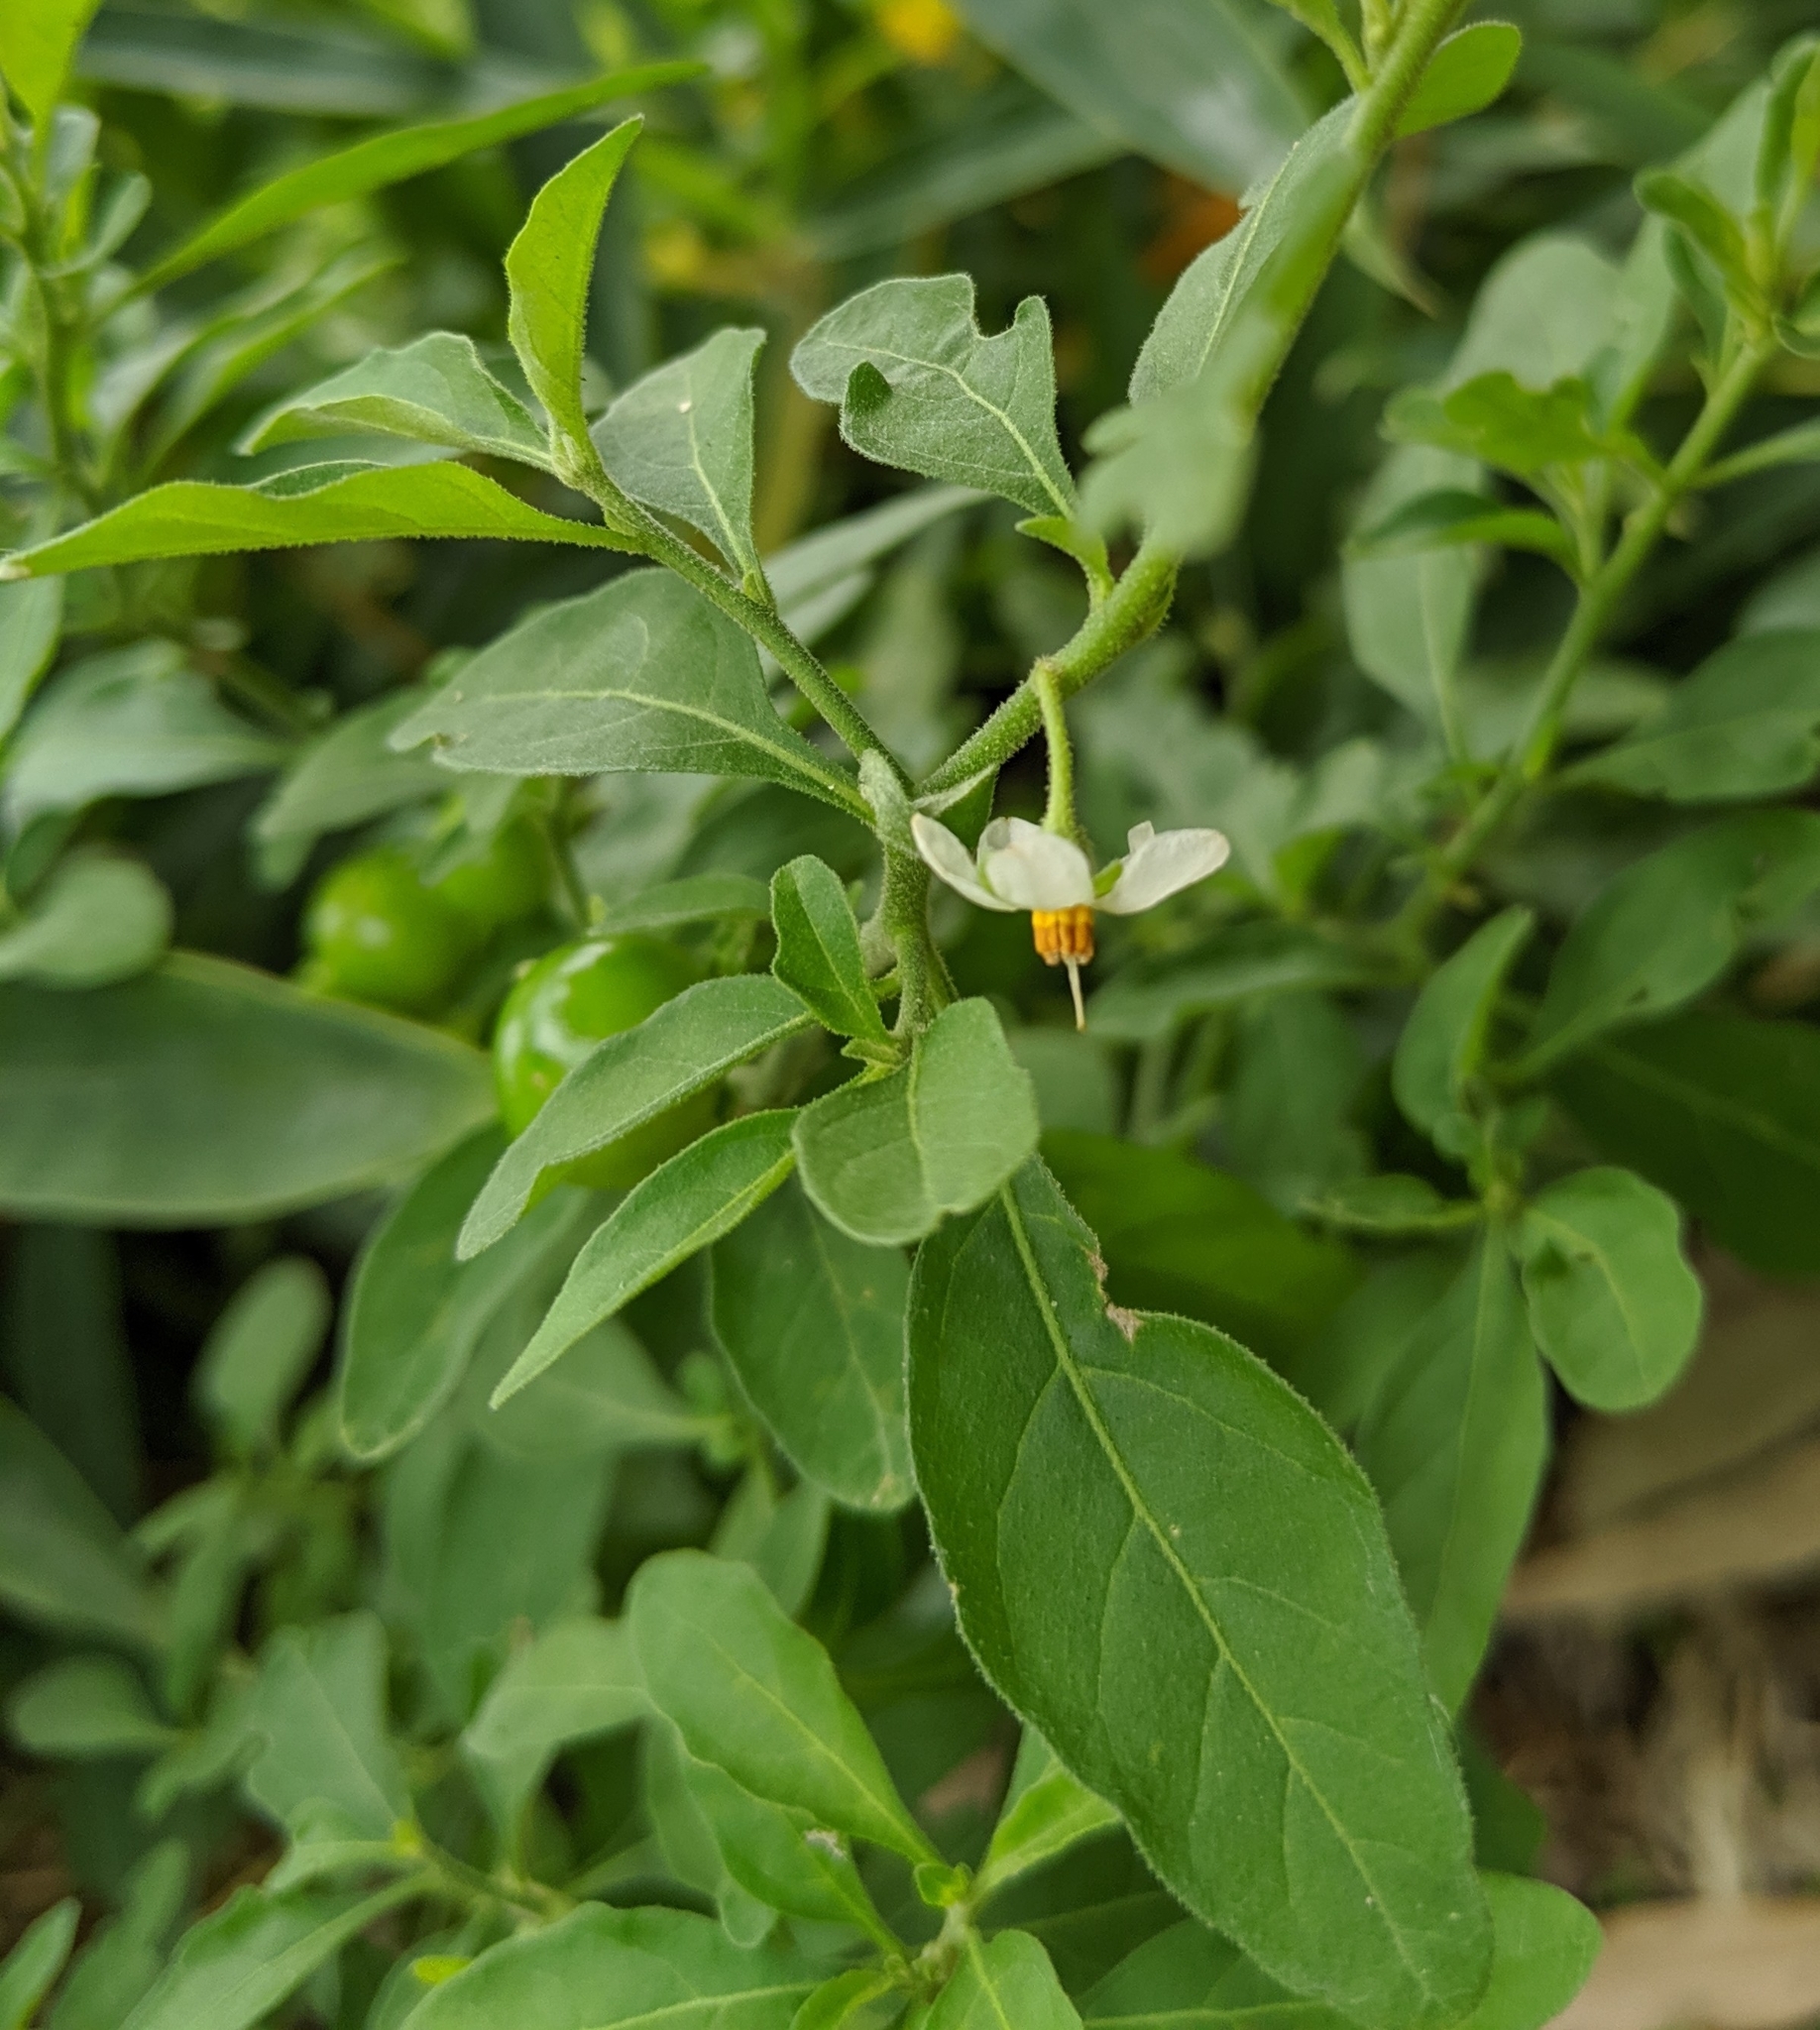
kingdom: Plantae
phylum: Tracheophyta
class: Magnoliopsida
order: Solanales
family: Solanaceae
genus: Solanum
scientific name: Solanum pseudocapsicum
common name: Jerusalem cherry
